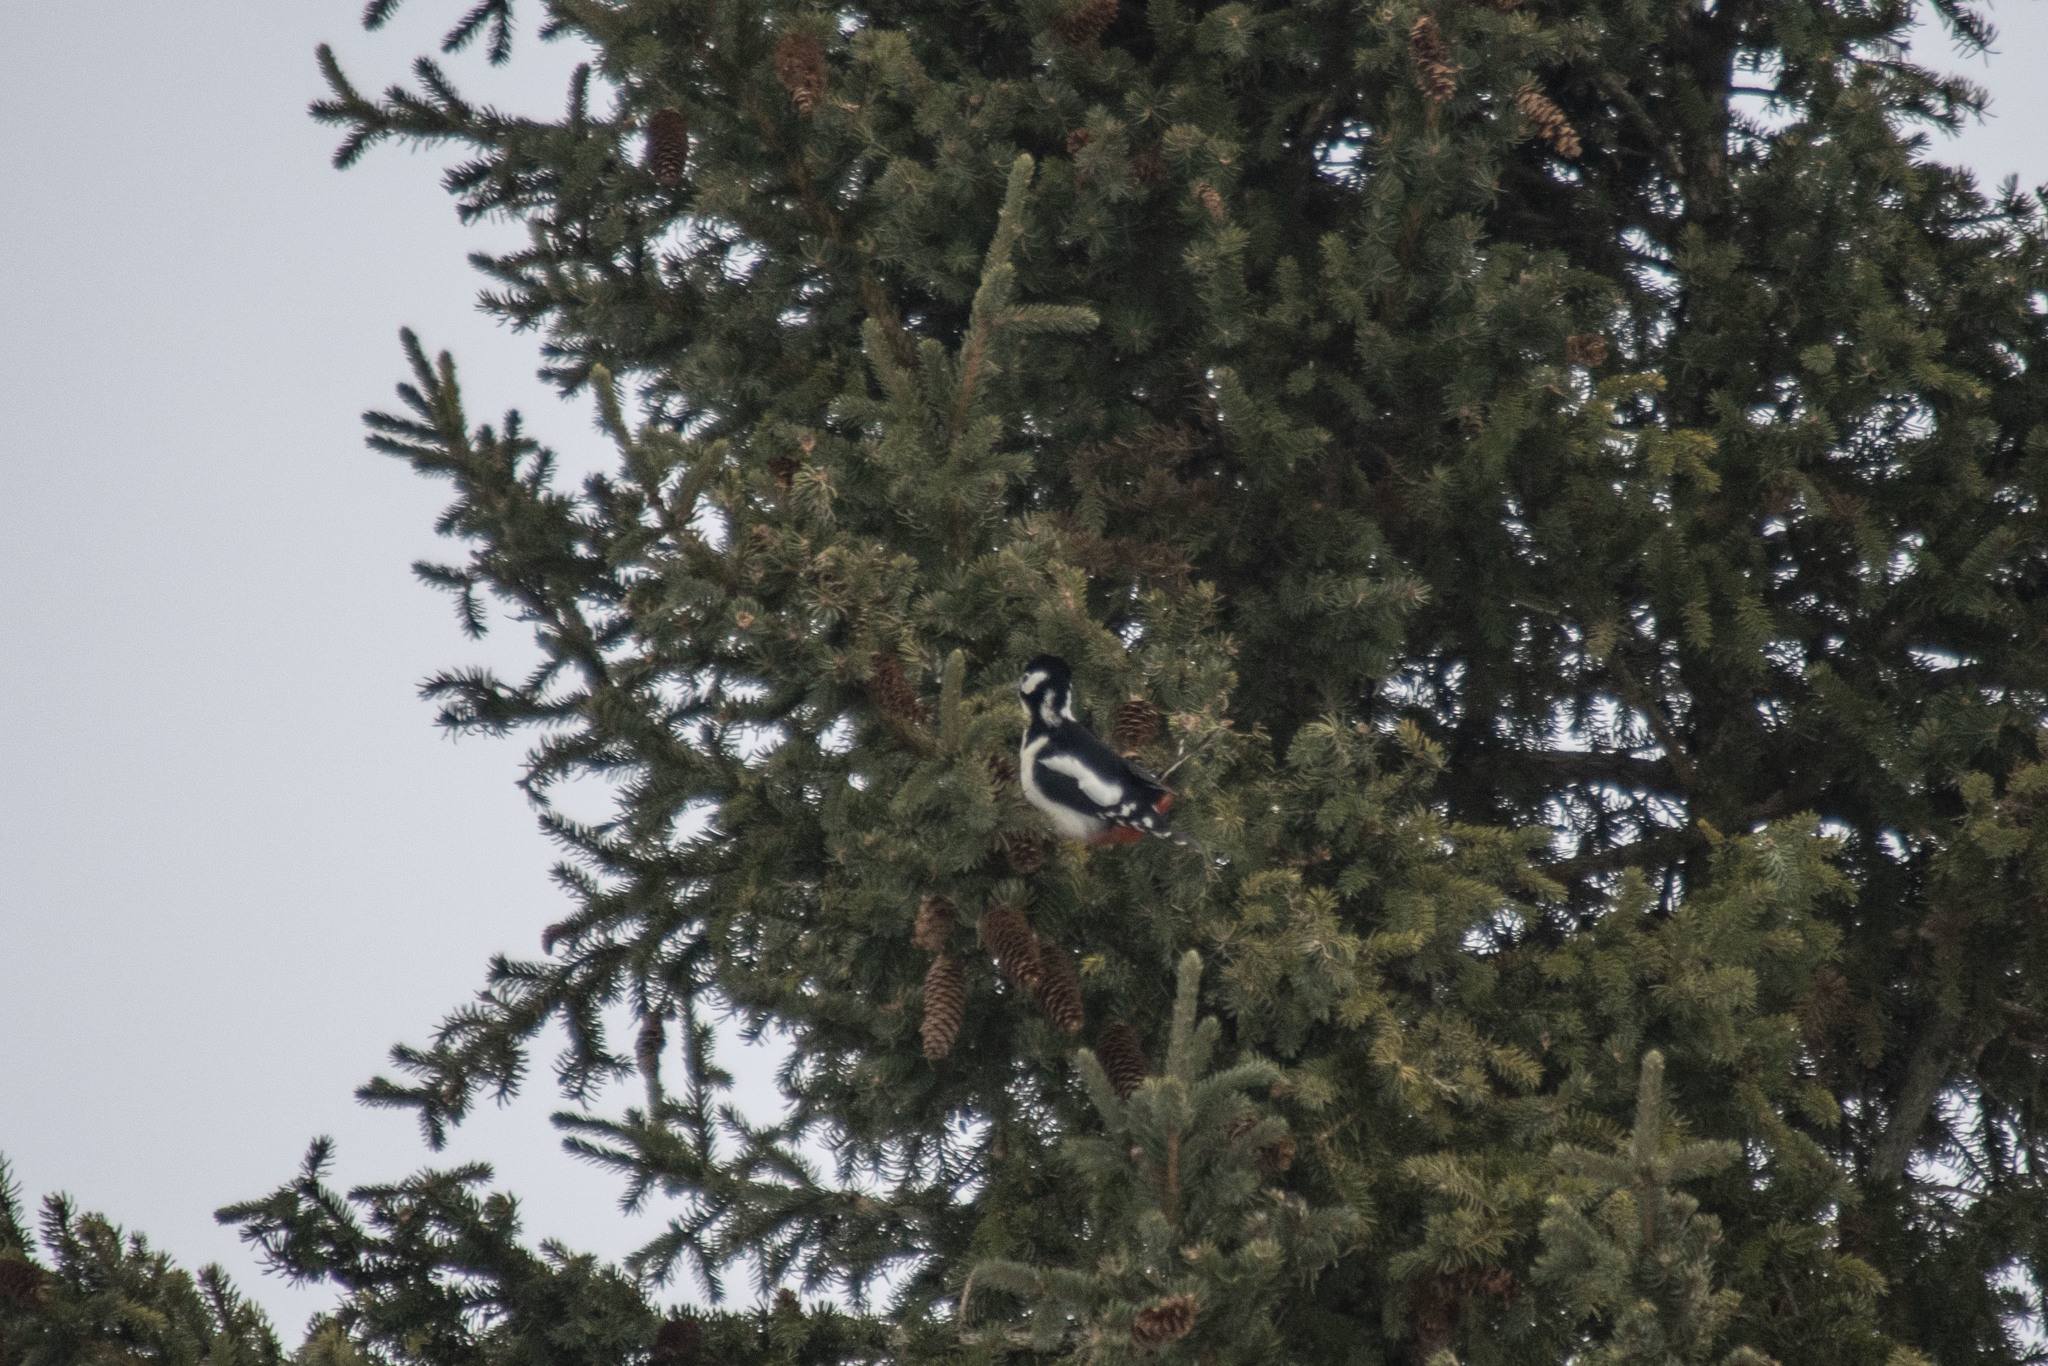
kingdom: Animalia
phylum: Chordata
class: Aves
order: Piciformes
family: Picidae
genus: Dendrocopos
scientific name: Dendrocopos major
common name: Great spotted woodpecker
